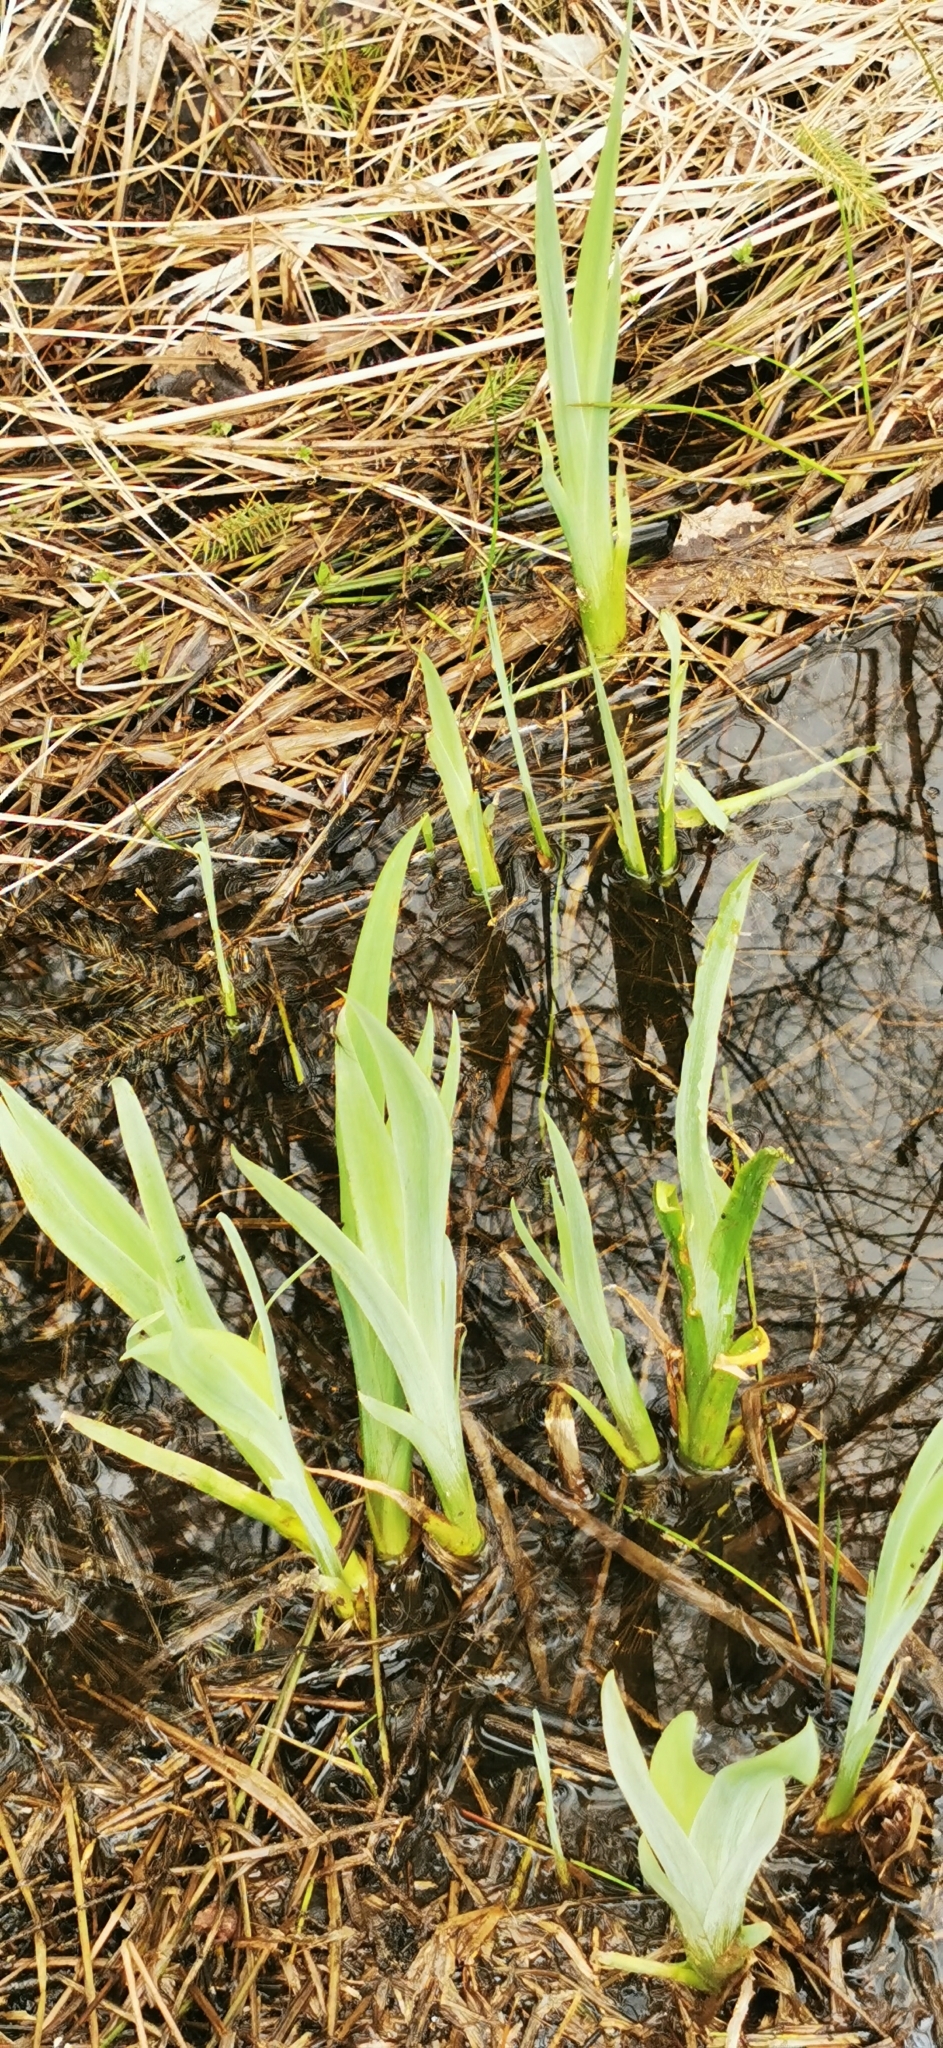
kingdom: Plantae
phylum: Tracheophyta
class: Liliopsida
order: Asparagales
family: Iridaceae
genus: Iris
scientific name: Iris pseudacorus
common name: Yellow flag
